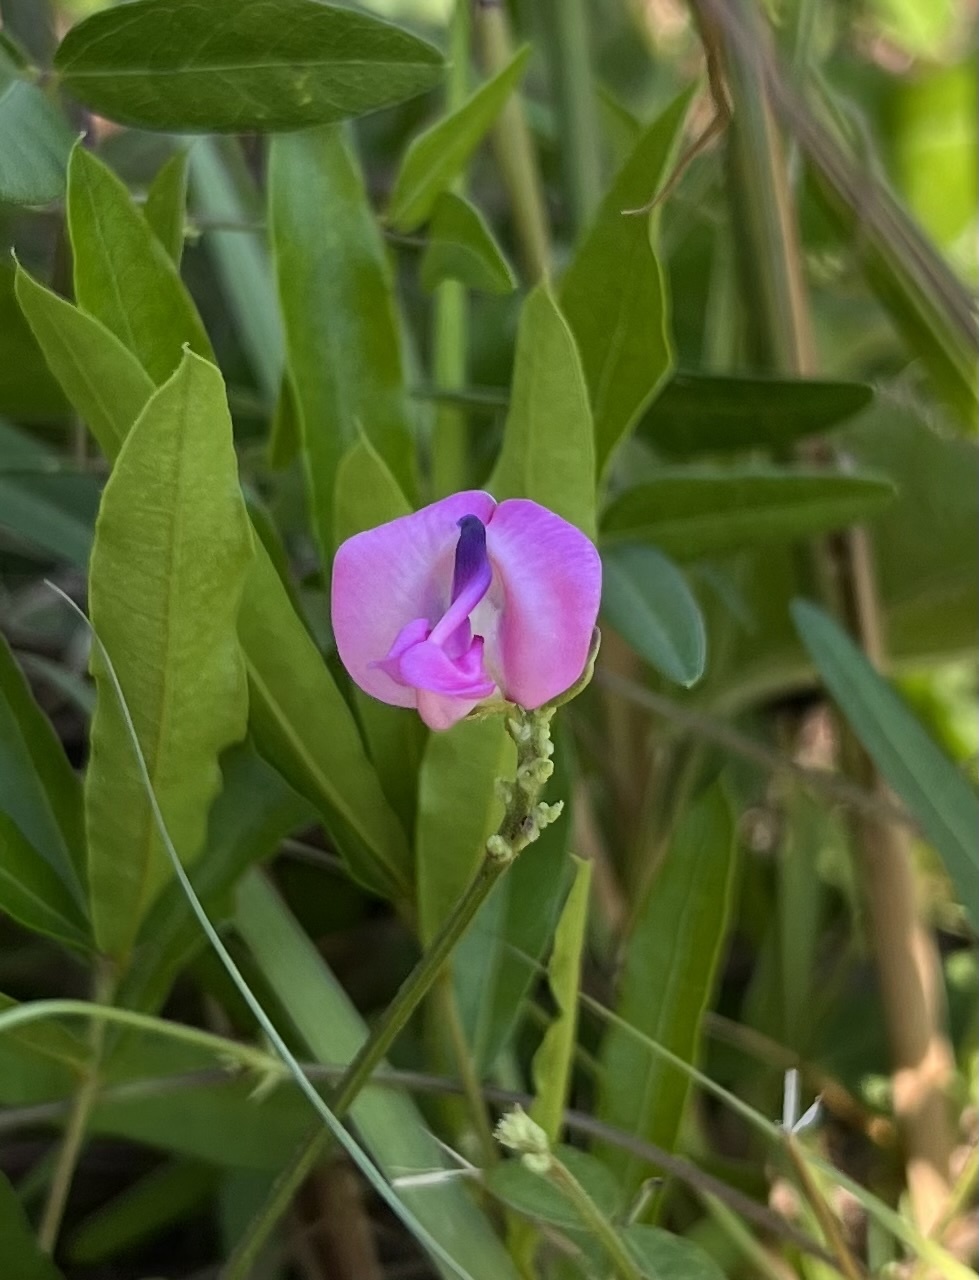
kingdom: Plantae
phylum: Tracheophyta
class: Magnoliopsida
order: Fabales
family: Fabaceae
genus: Strophostyles
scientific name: Strophostyles umbellata
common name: Perennial wild bean
